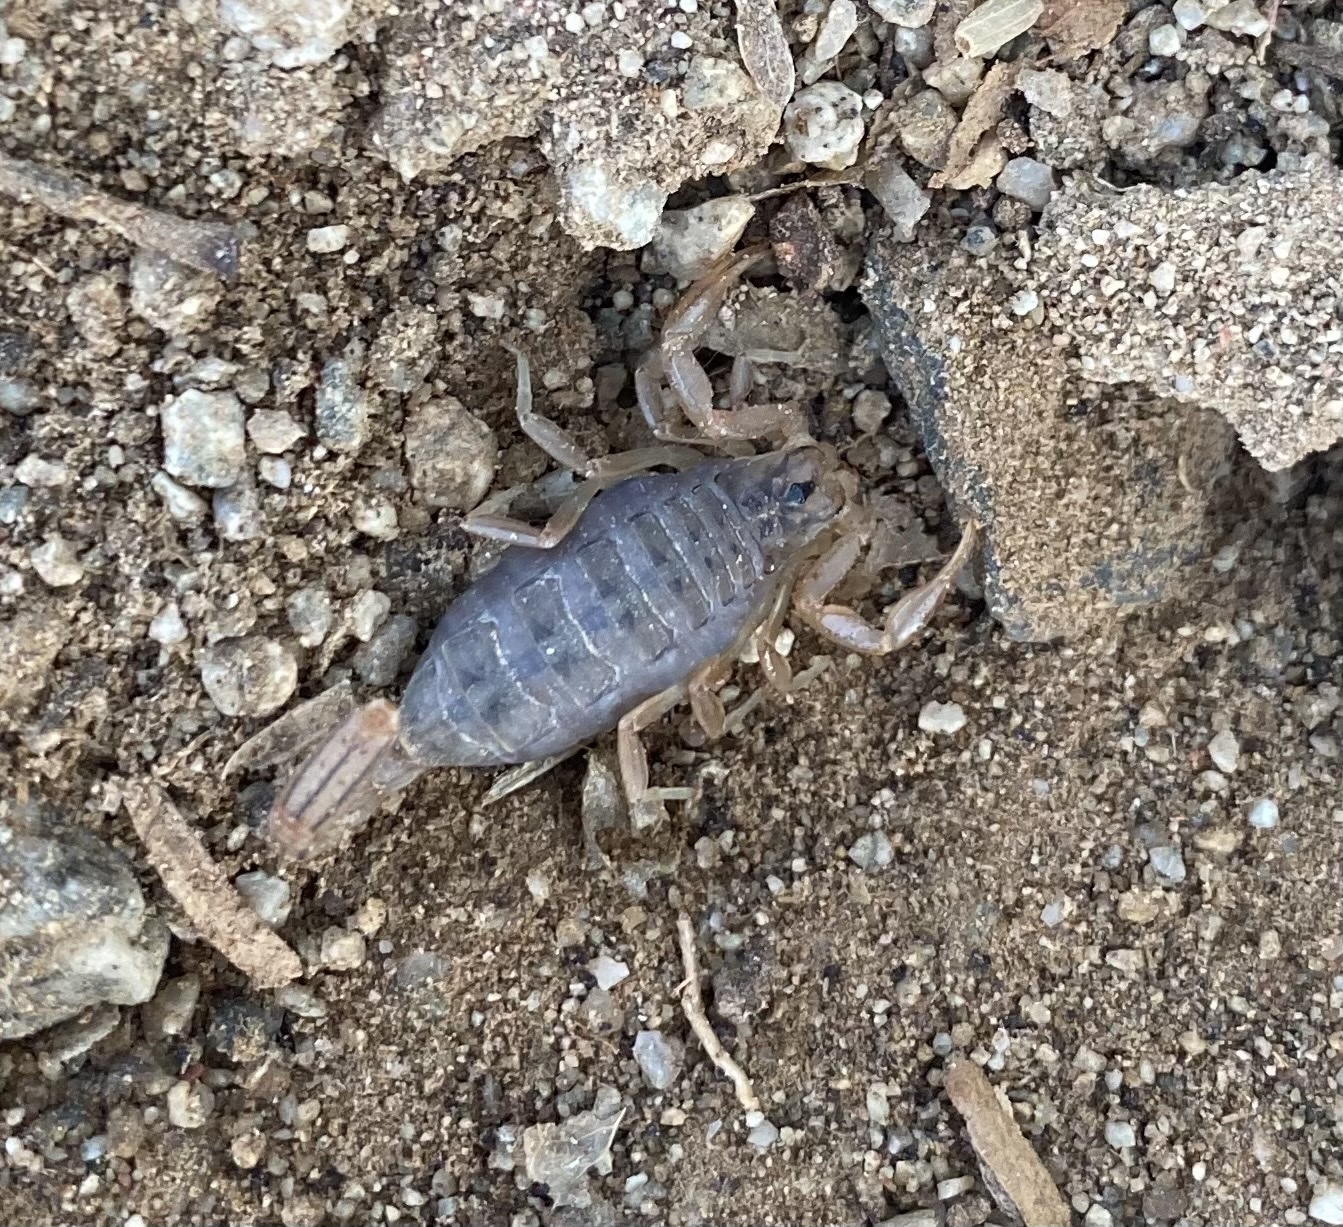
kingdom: Animalia
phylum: Arthropoda
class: Arachnida
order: Scorpiones
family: Vaejovidae
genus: Paravaejovis
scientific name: Paravaejovis spinigerus
